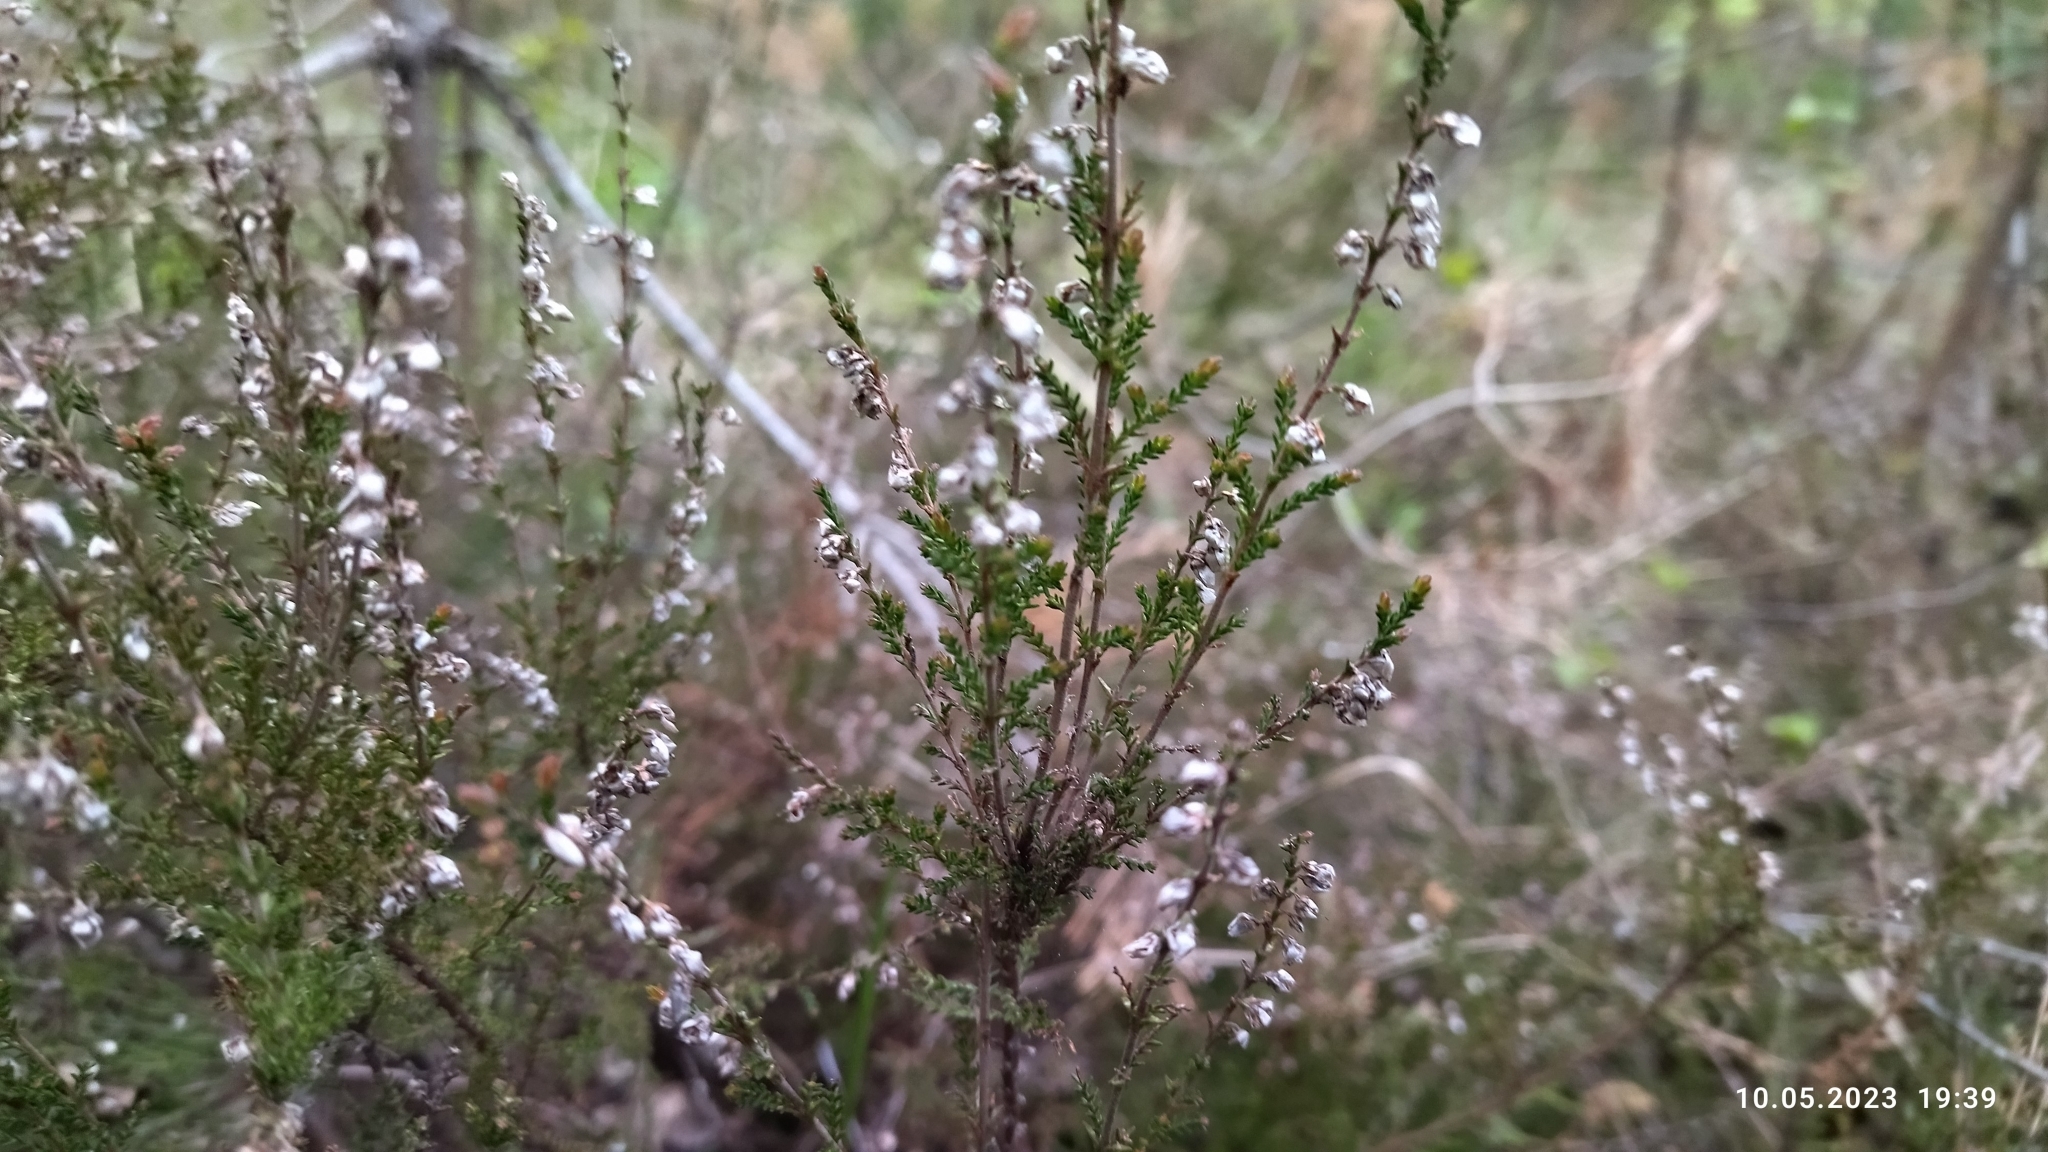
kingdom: Plantae
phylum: Tracheophyta
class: Magnoliopsida
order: Ericales
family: Ericaceae
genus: Calluna
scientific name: Calluna vulgaris
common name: Heather
